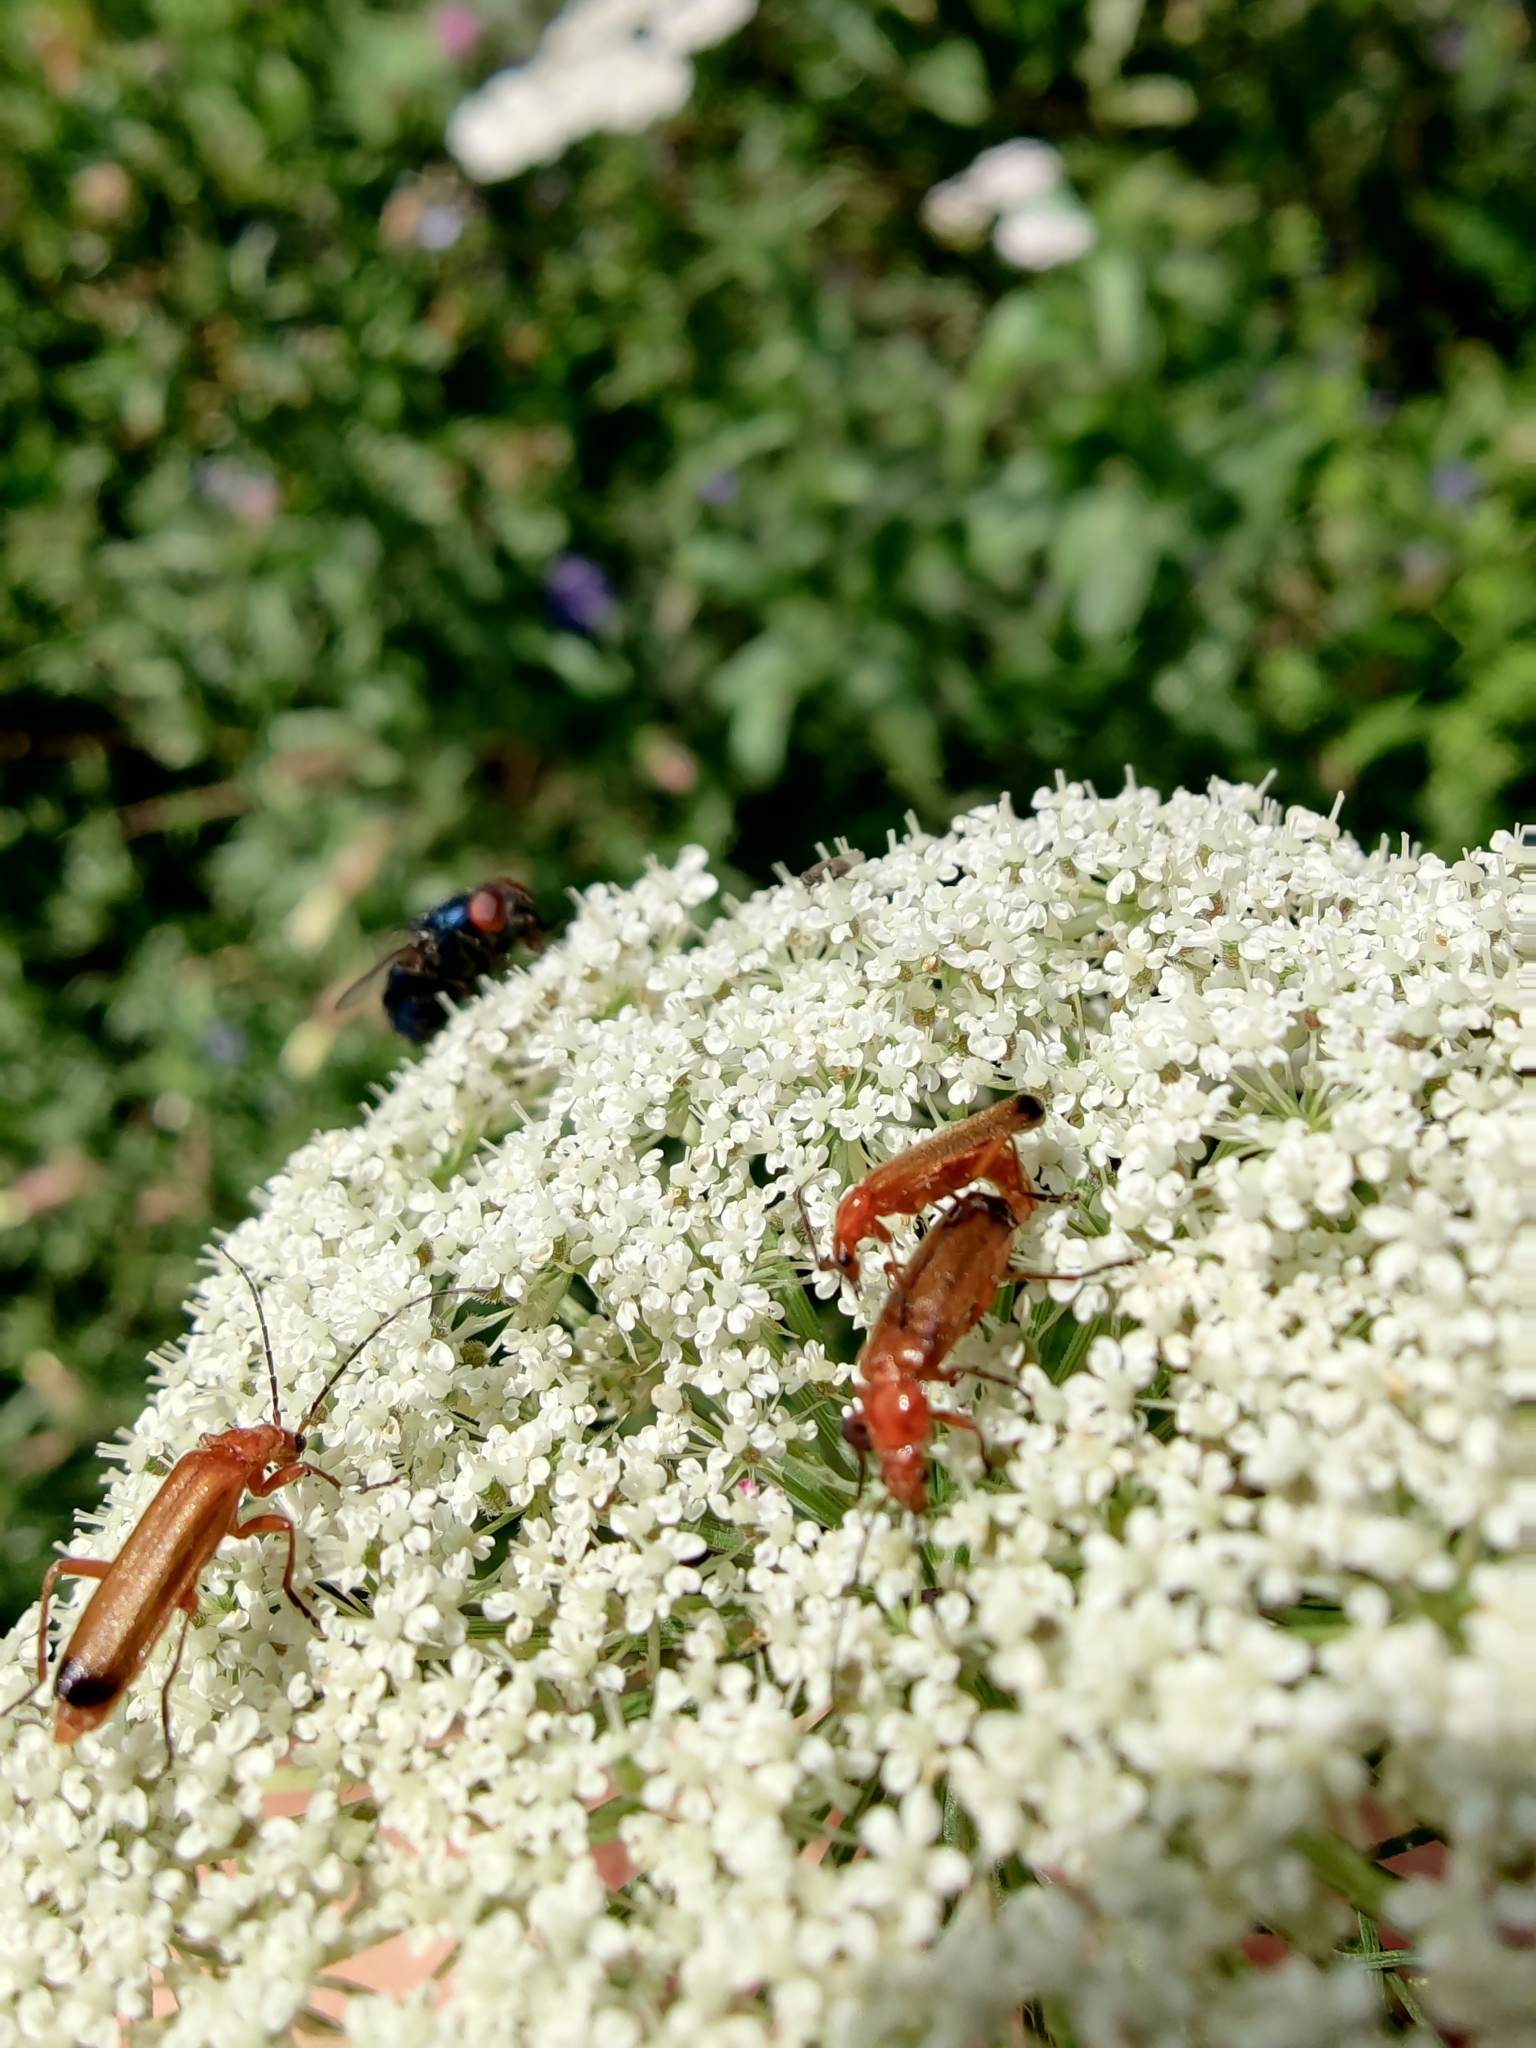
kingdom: Animalia
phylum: Arthropoda
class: Insecta
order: Coleoptera
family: Cantharidae
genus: Rhagonycha
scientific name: Rhagonycha fulva
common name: Common red soldier beetle
